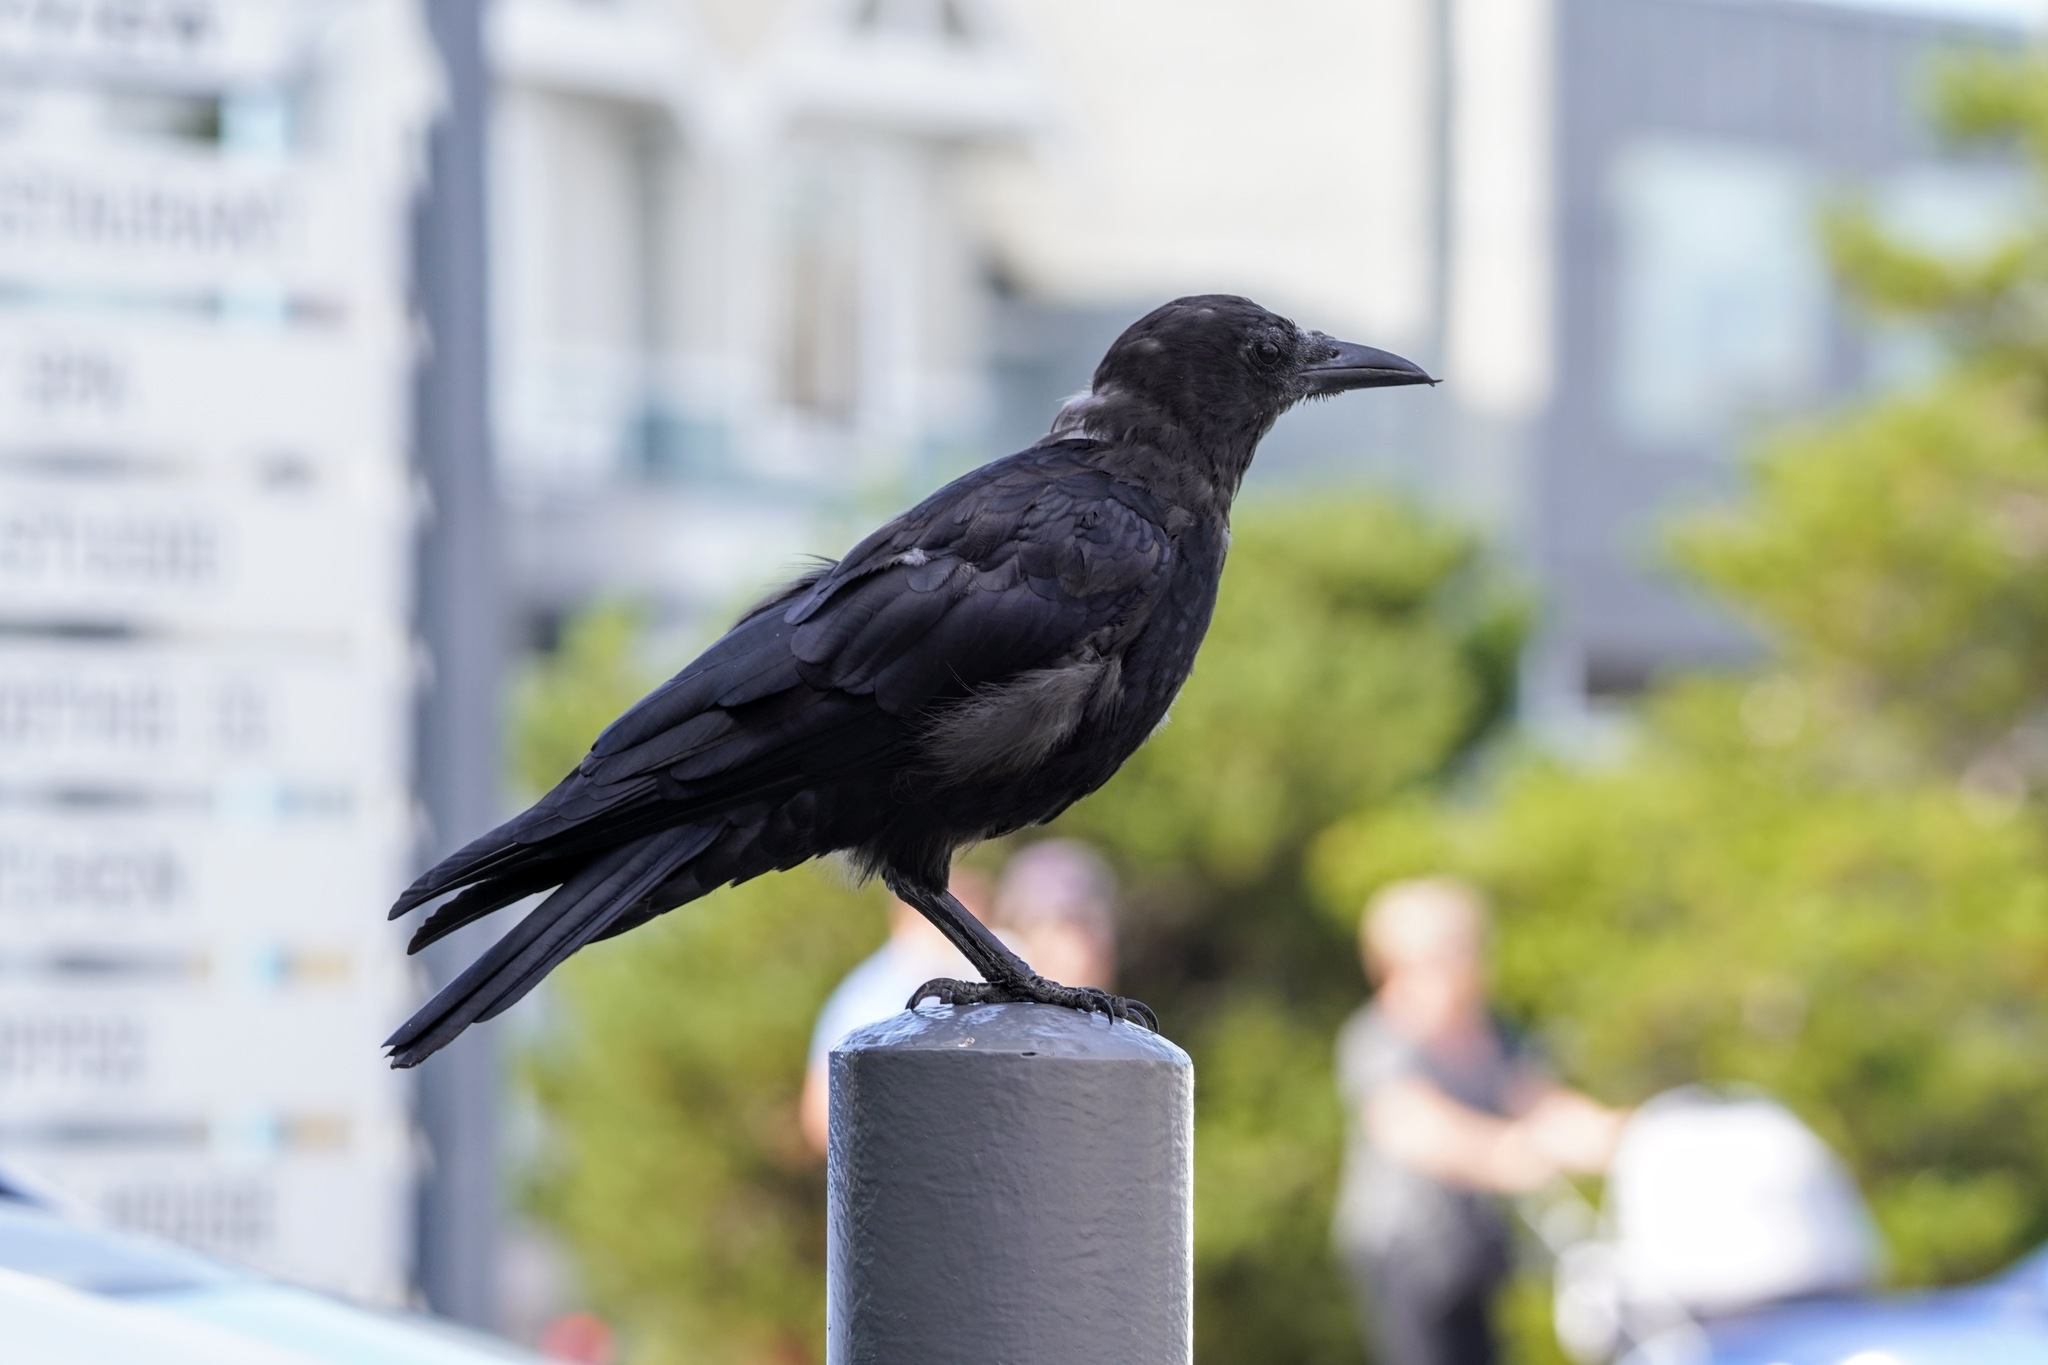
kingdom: Animalia
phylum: Chordata
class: Aves
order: Passeriformes
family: Corvidae
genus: Corvus
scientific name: Corvus brachyrhynchos
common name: American crow
